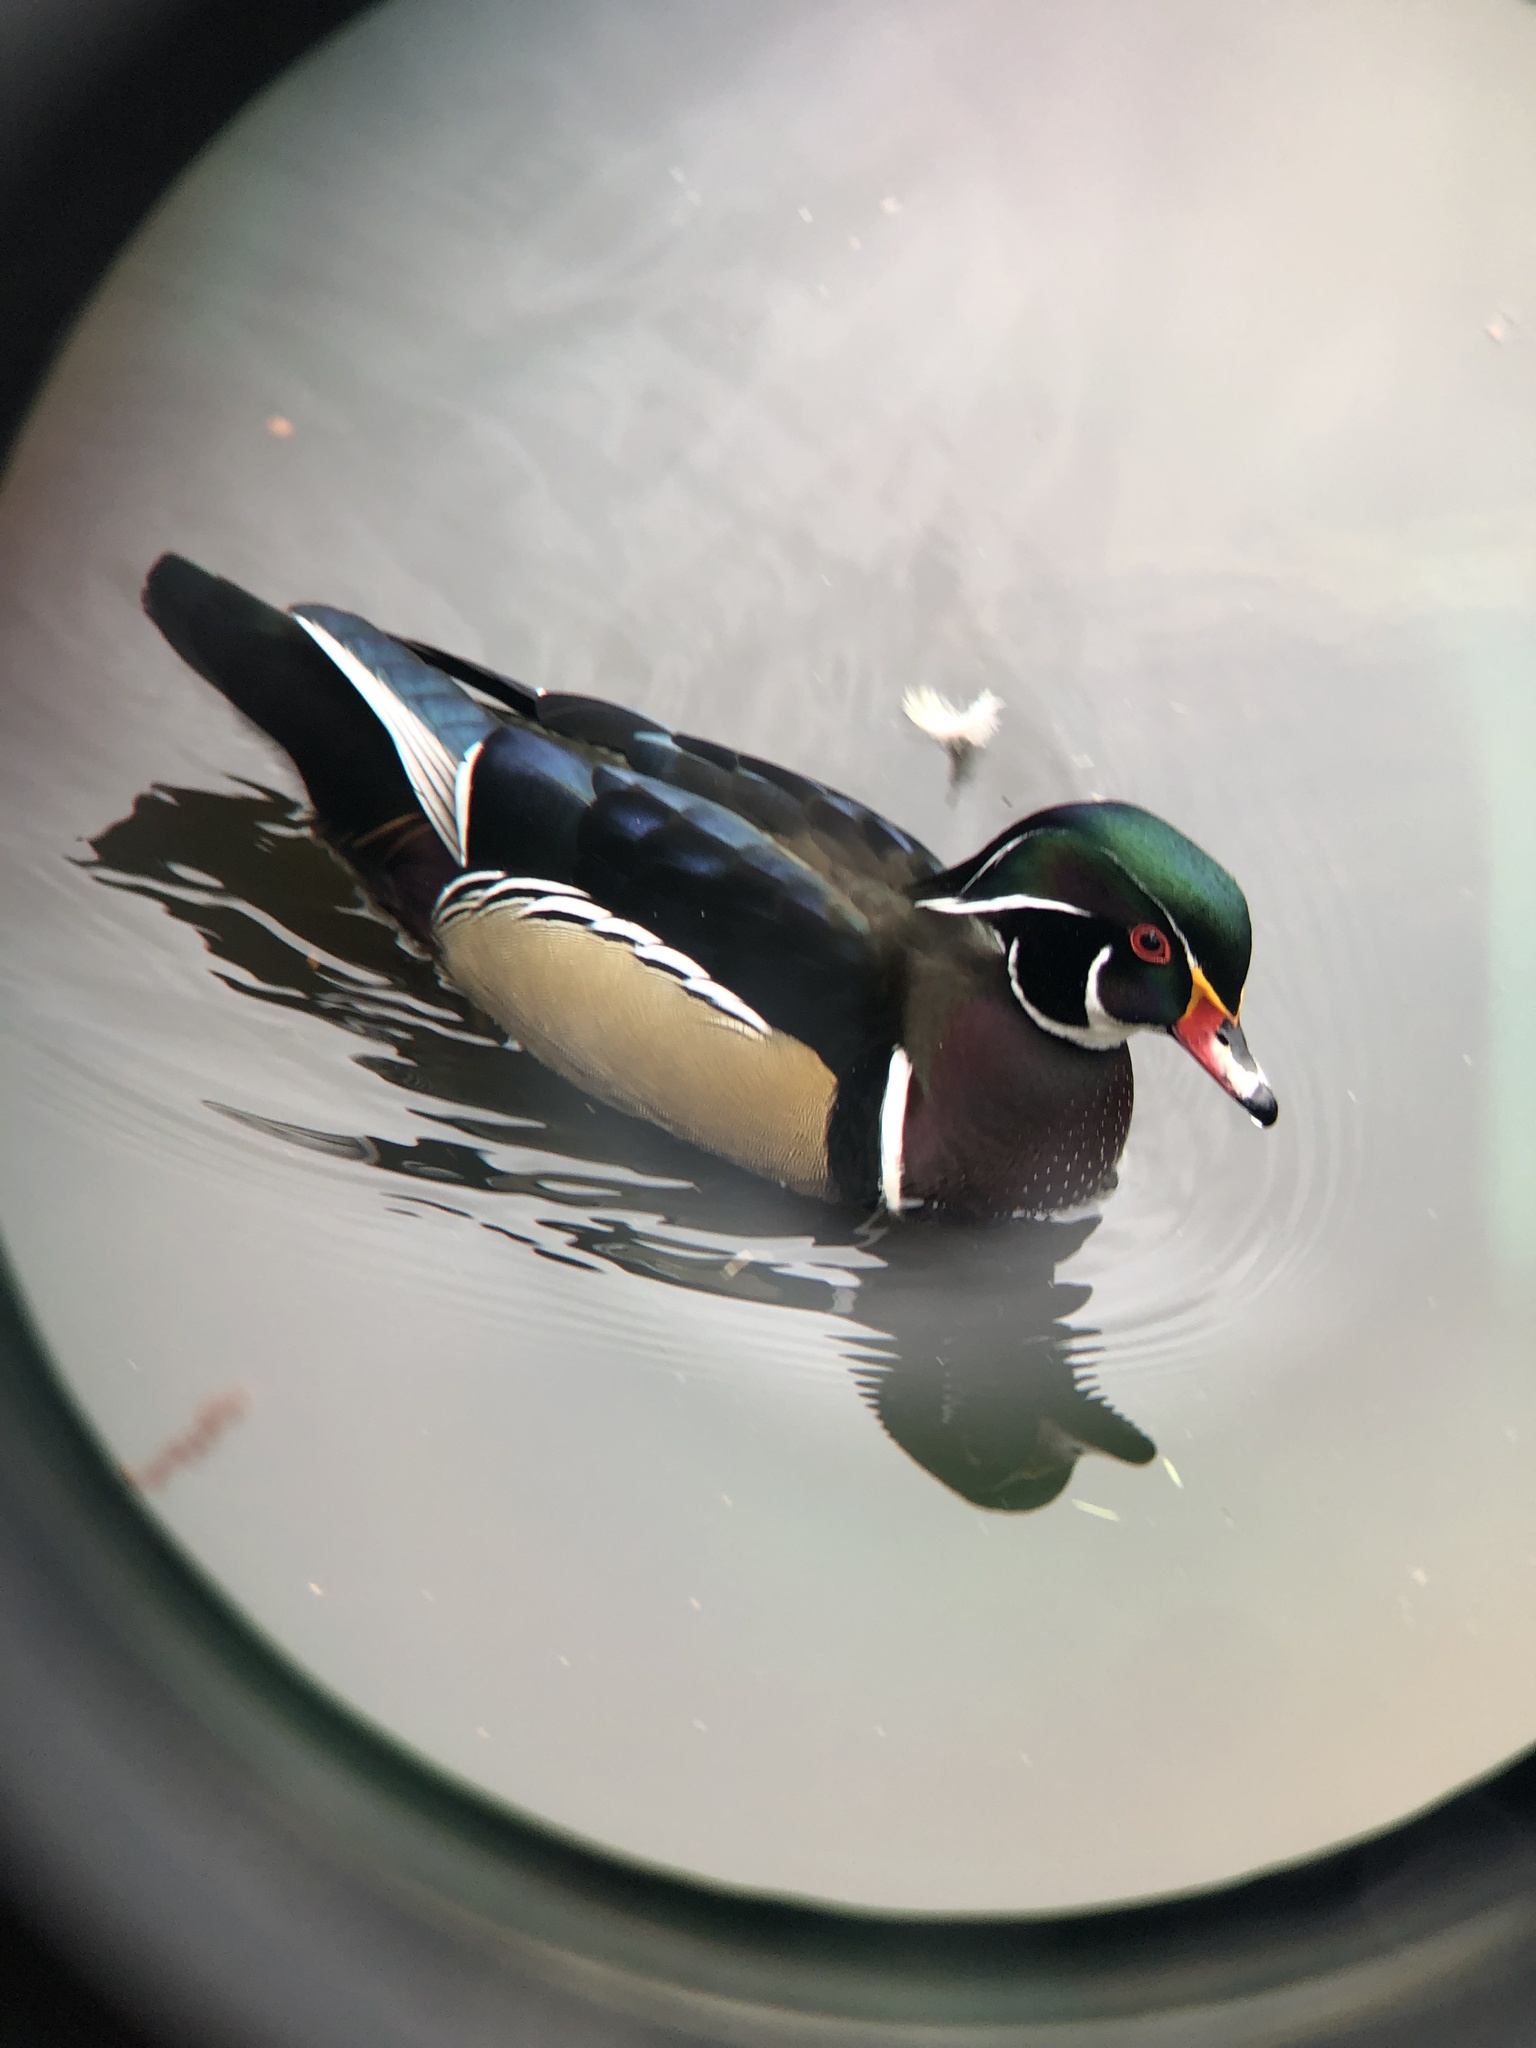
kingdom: Animalia
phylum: Chordata
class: Aves
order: Anseriformes
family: Anatidae
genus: Aix
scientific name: Aix sponsa
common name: Wood duck
